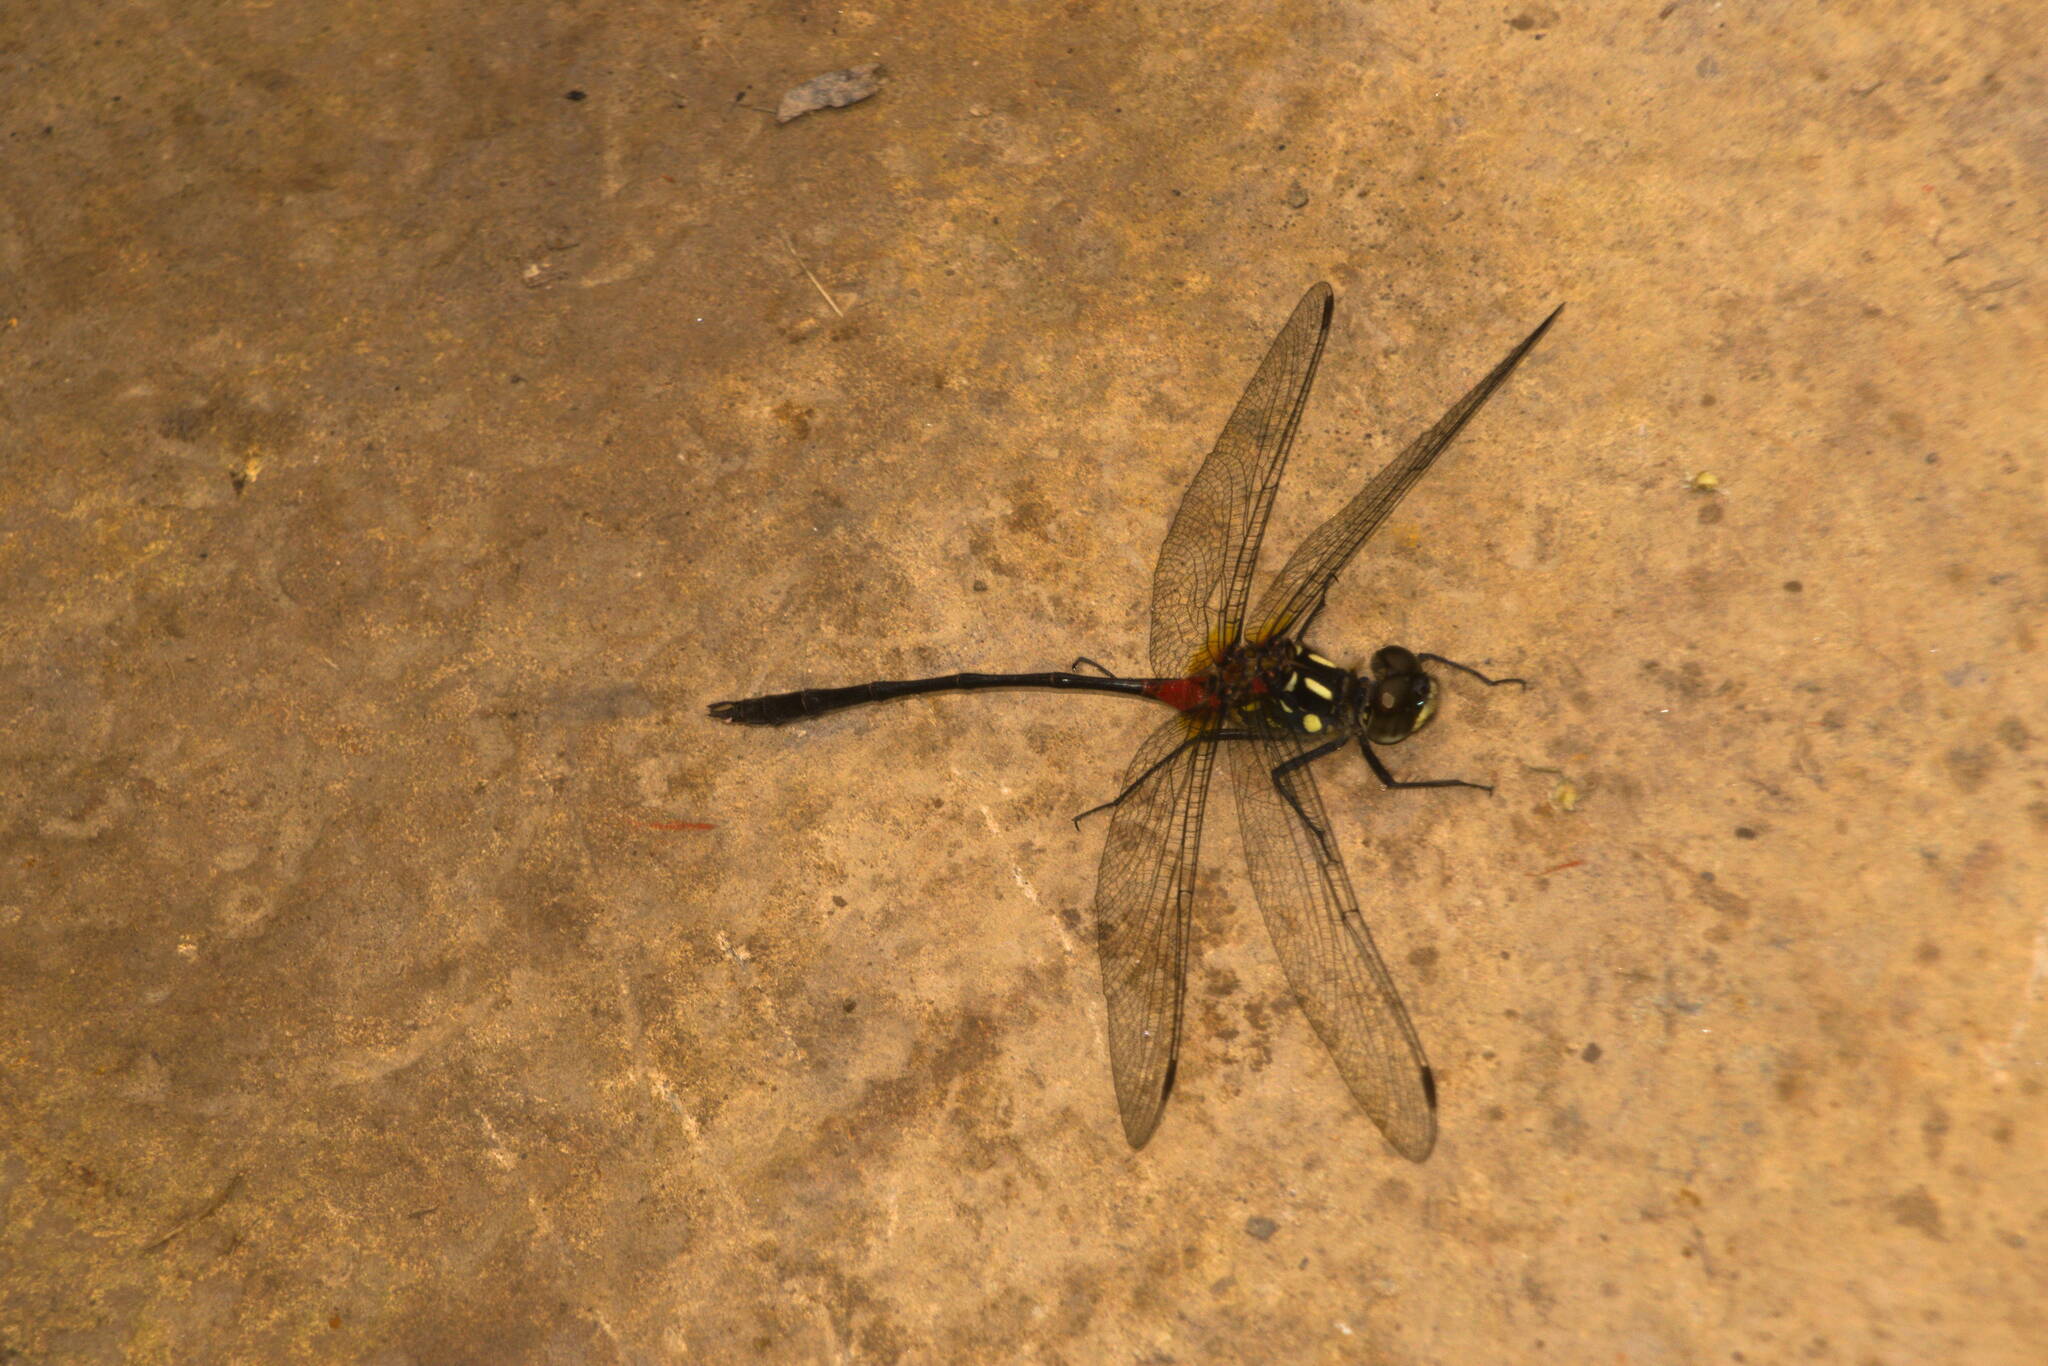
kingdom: Animalia
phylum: Arthropoda
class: Insecta
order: Odonata
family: Libellulidae
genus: Nesogonia
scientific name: Nesogonia blackburni
